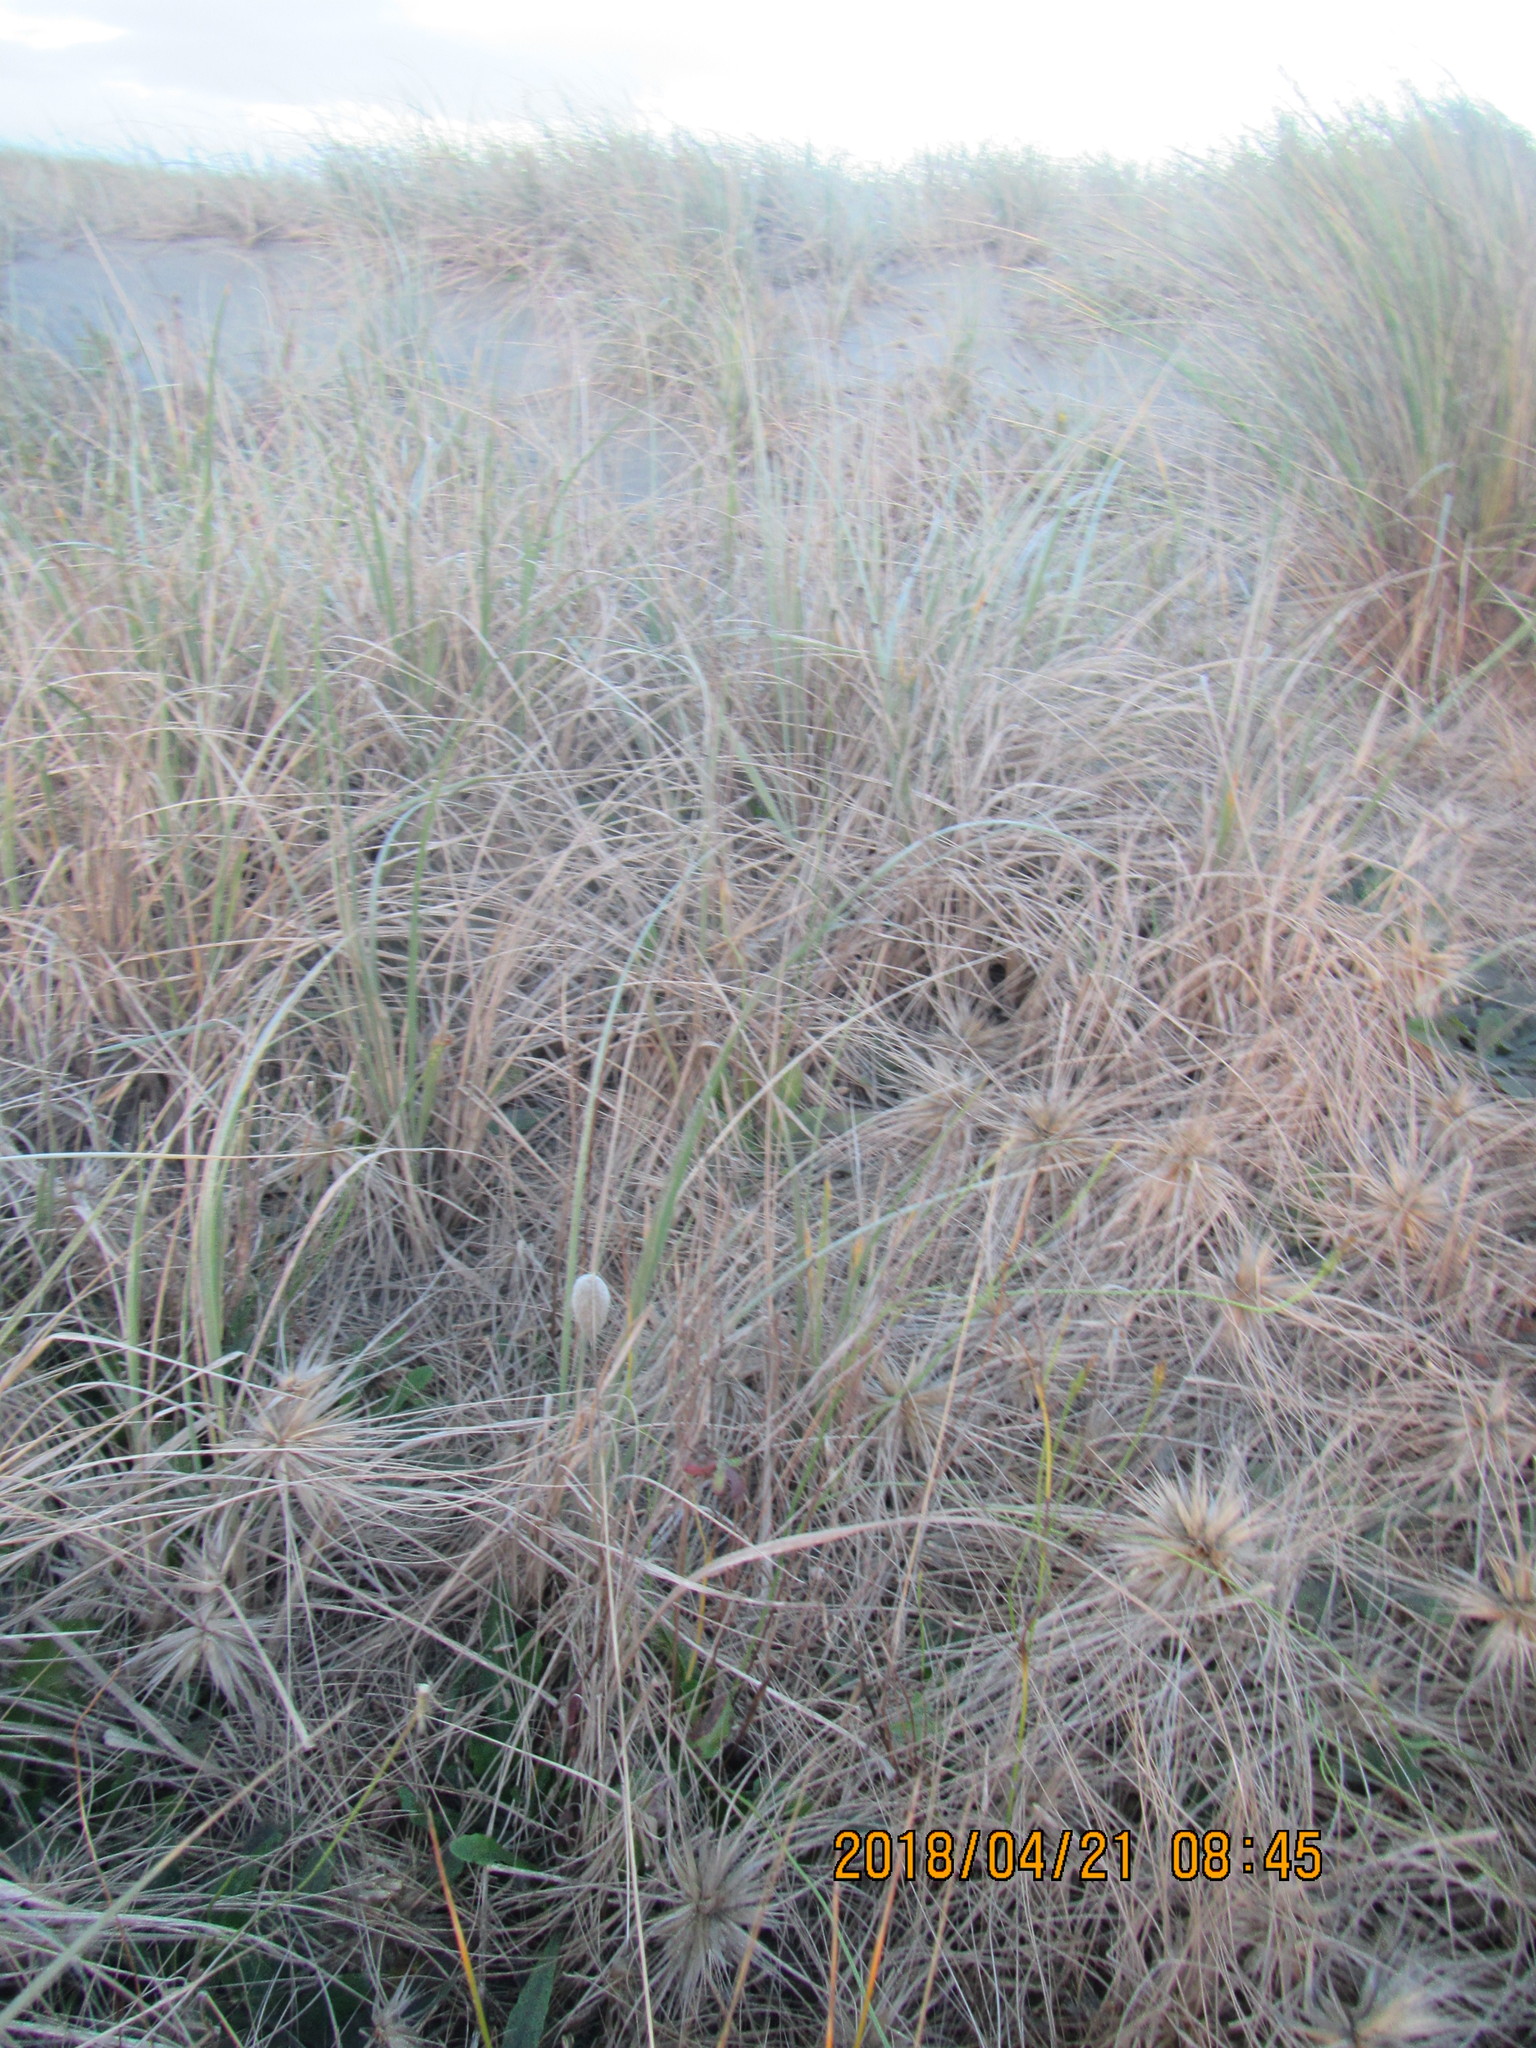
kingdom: Plantae
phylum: Tracheophyta
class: Liliopsida
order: Poales
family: Poaceae
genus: Spinifex
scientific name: Spinifex sericeus
